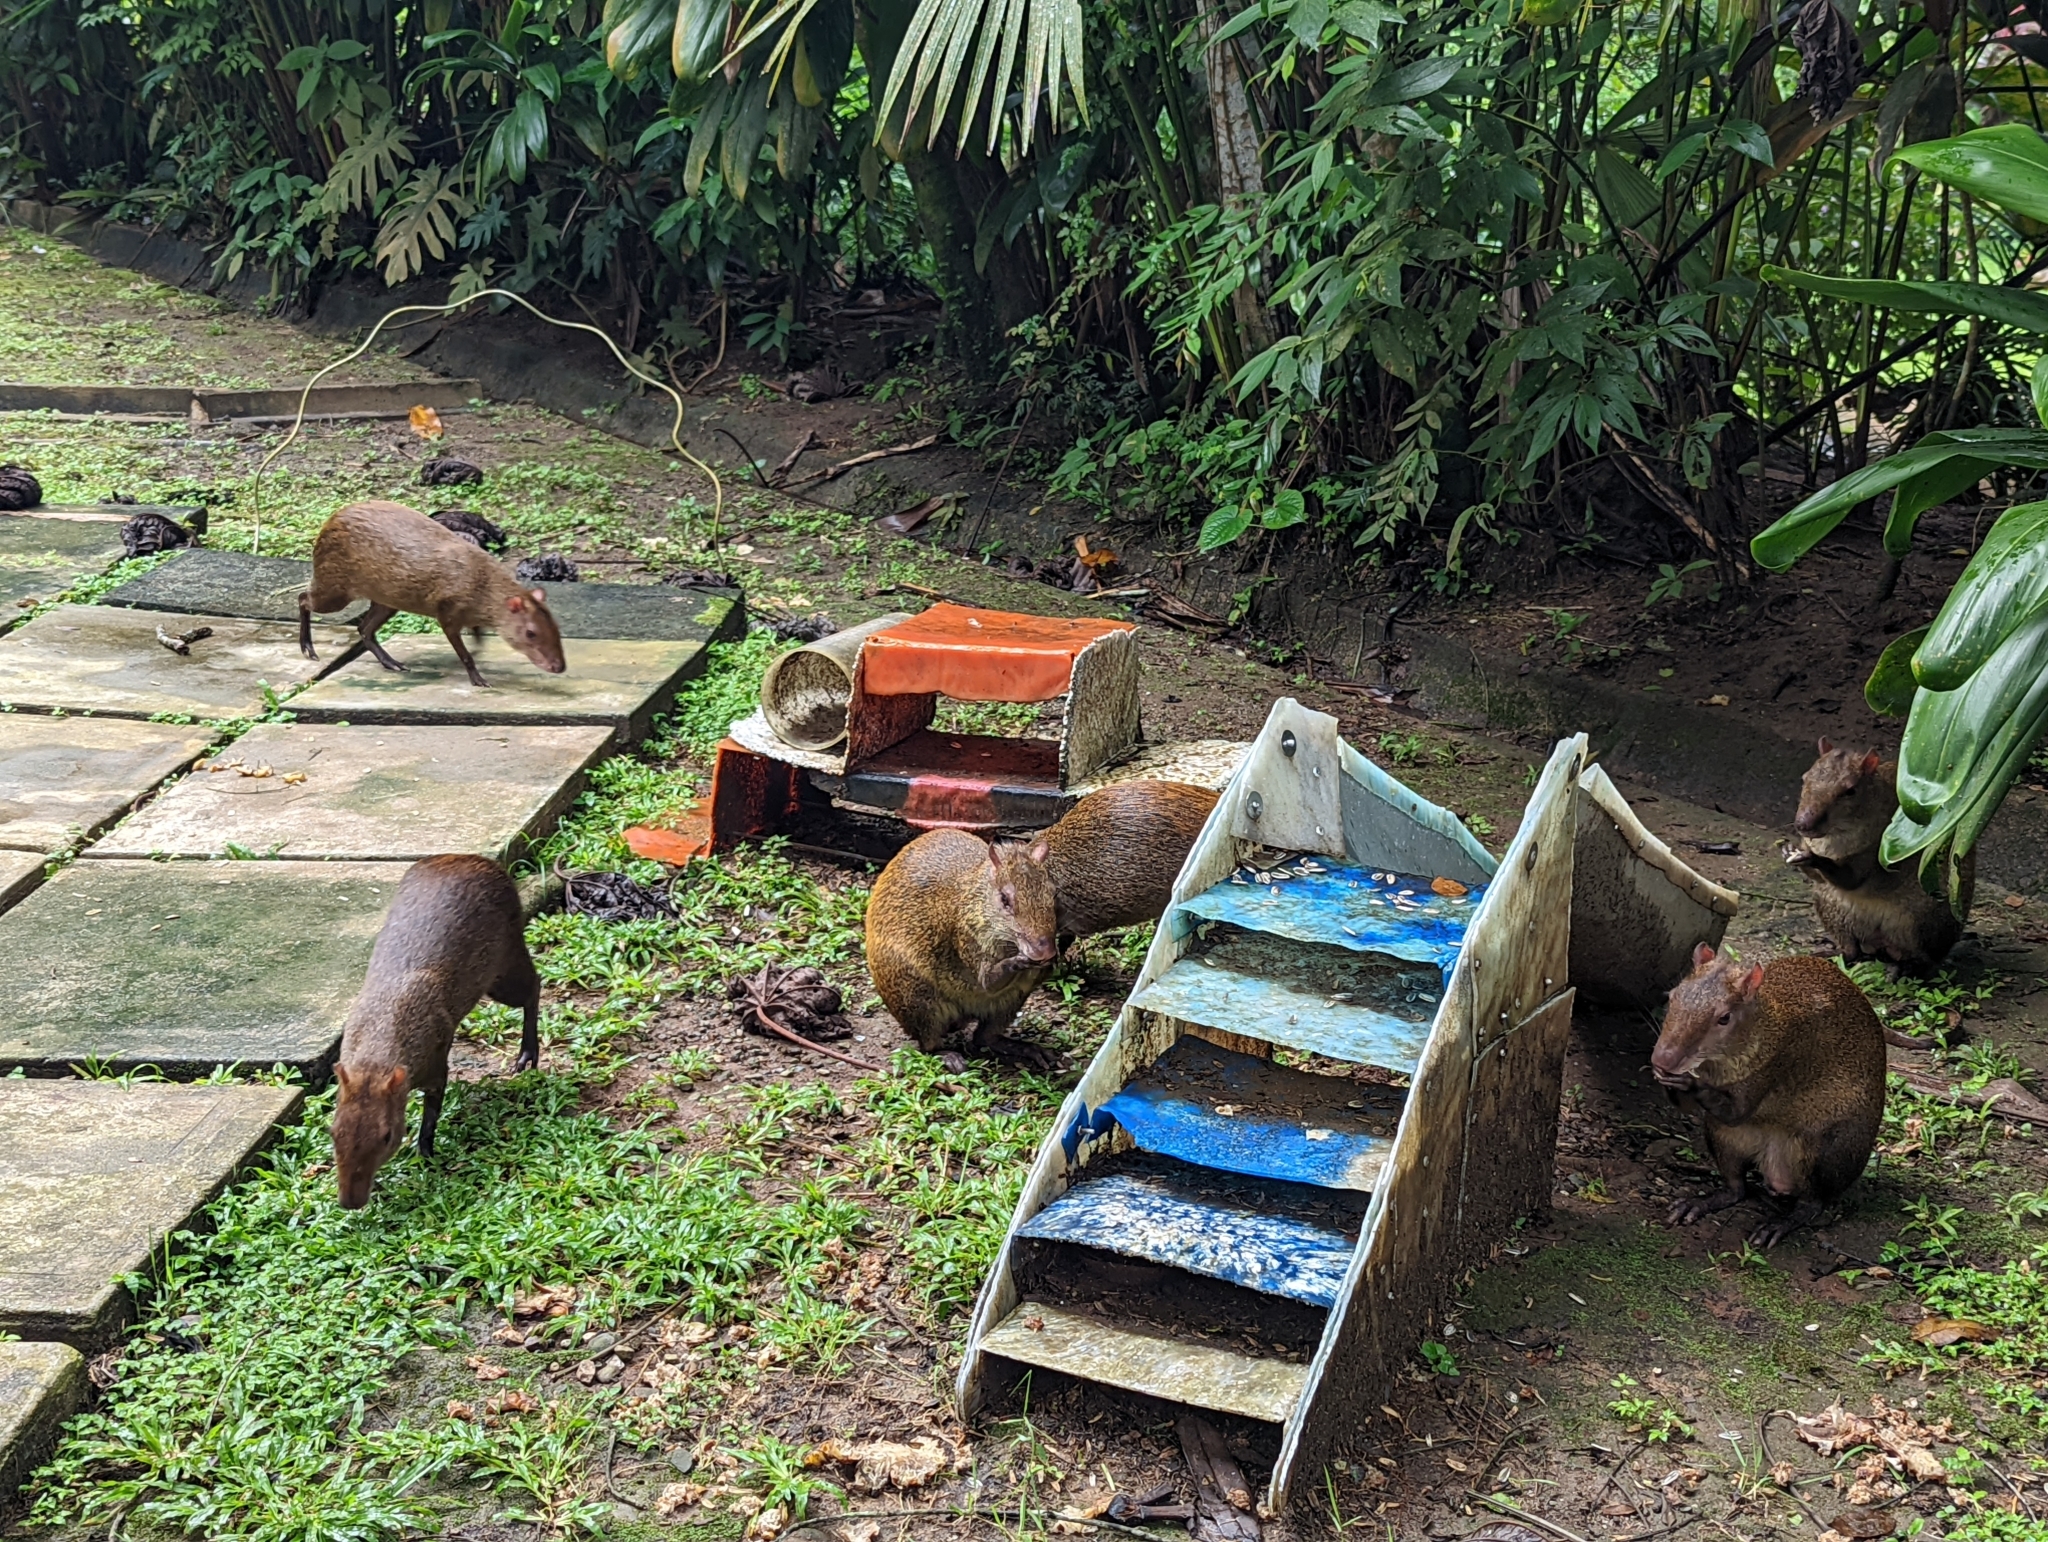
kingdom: Animalia
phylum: Chordata
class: Mammalia
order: Rodentia
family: Dasyproctidae
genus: Dasyprocta
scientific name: Dasyprocta punctata
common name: Central american agouti
